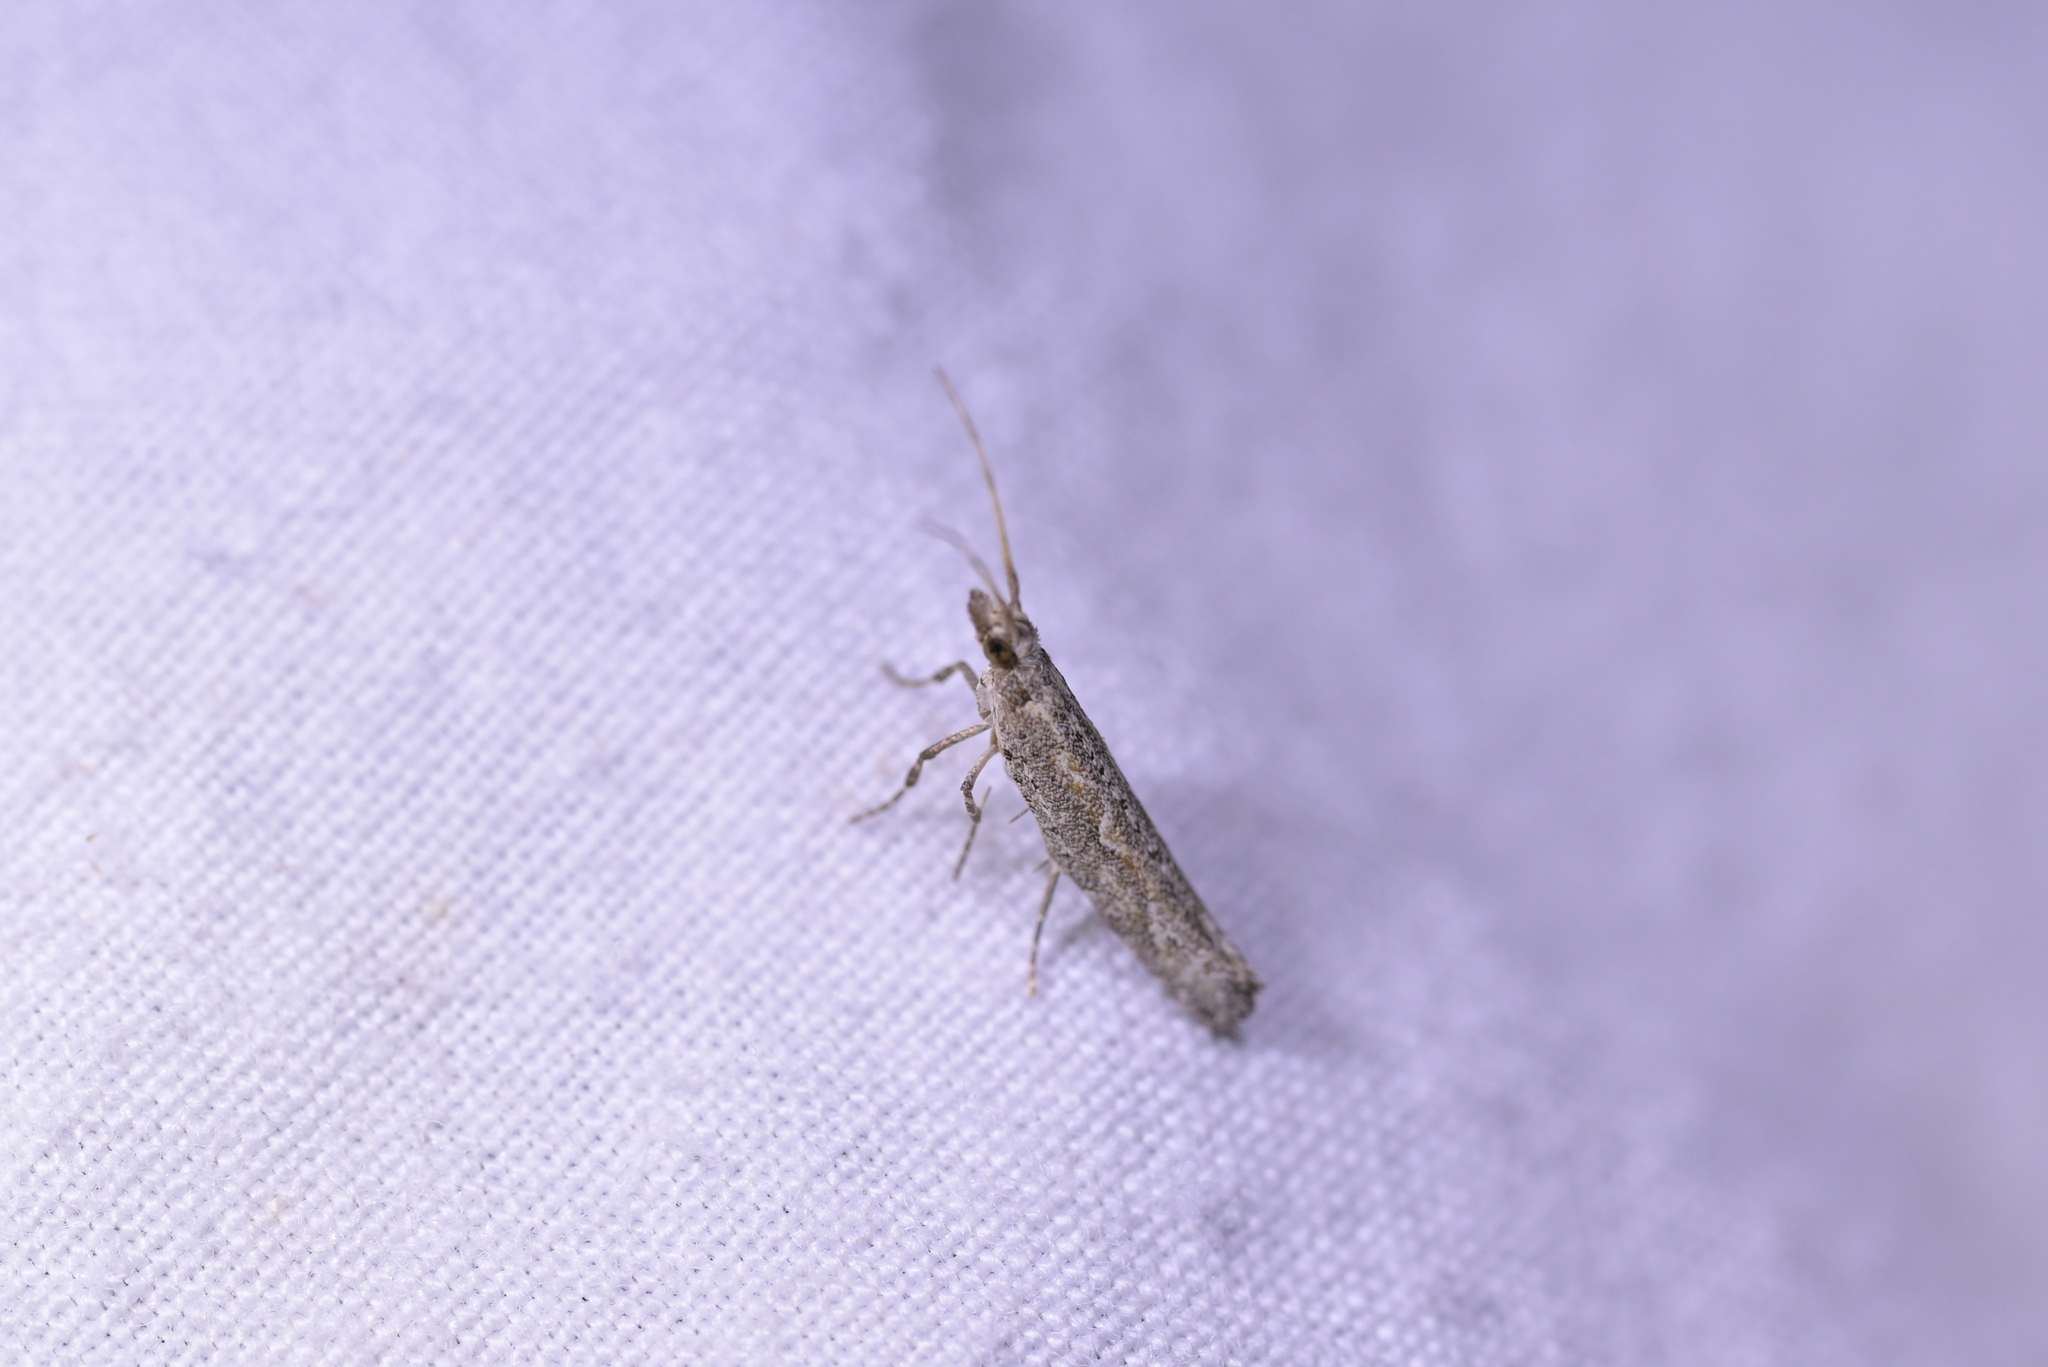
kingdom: Animalia
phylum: Arthropoda
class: Insecta
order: Lepidoptera
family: Plutellidae
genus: Plutella
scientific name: Plutella xylostella
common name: Diamond-back moth
